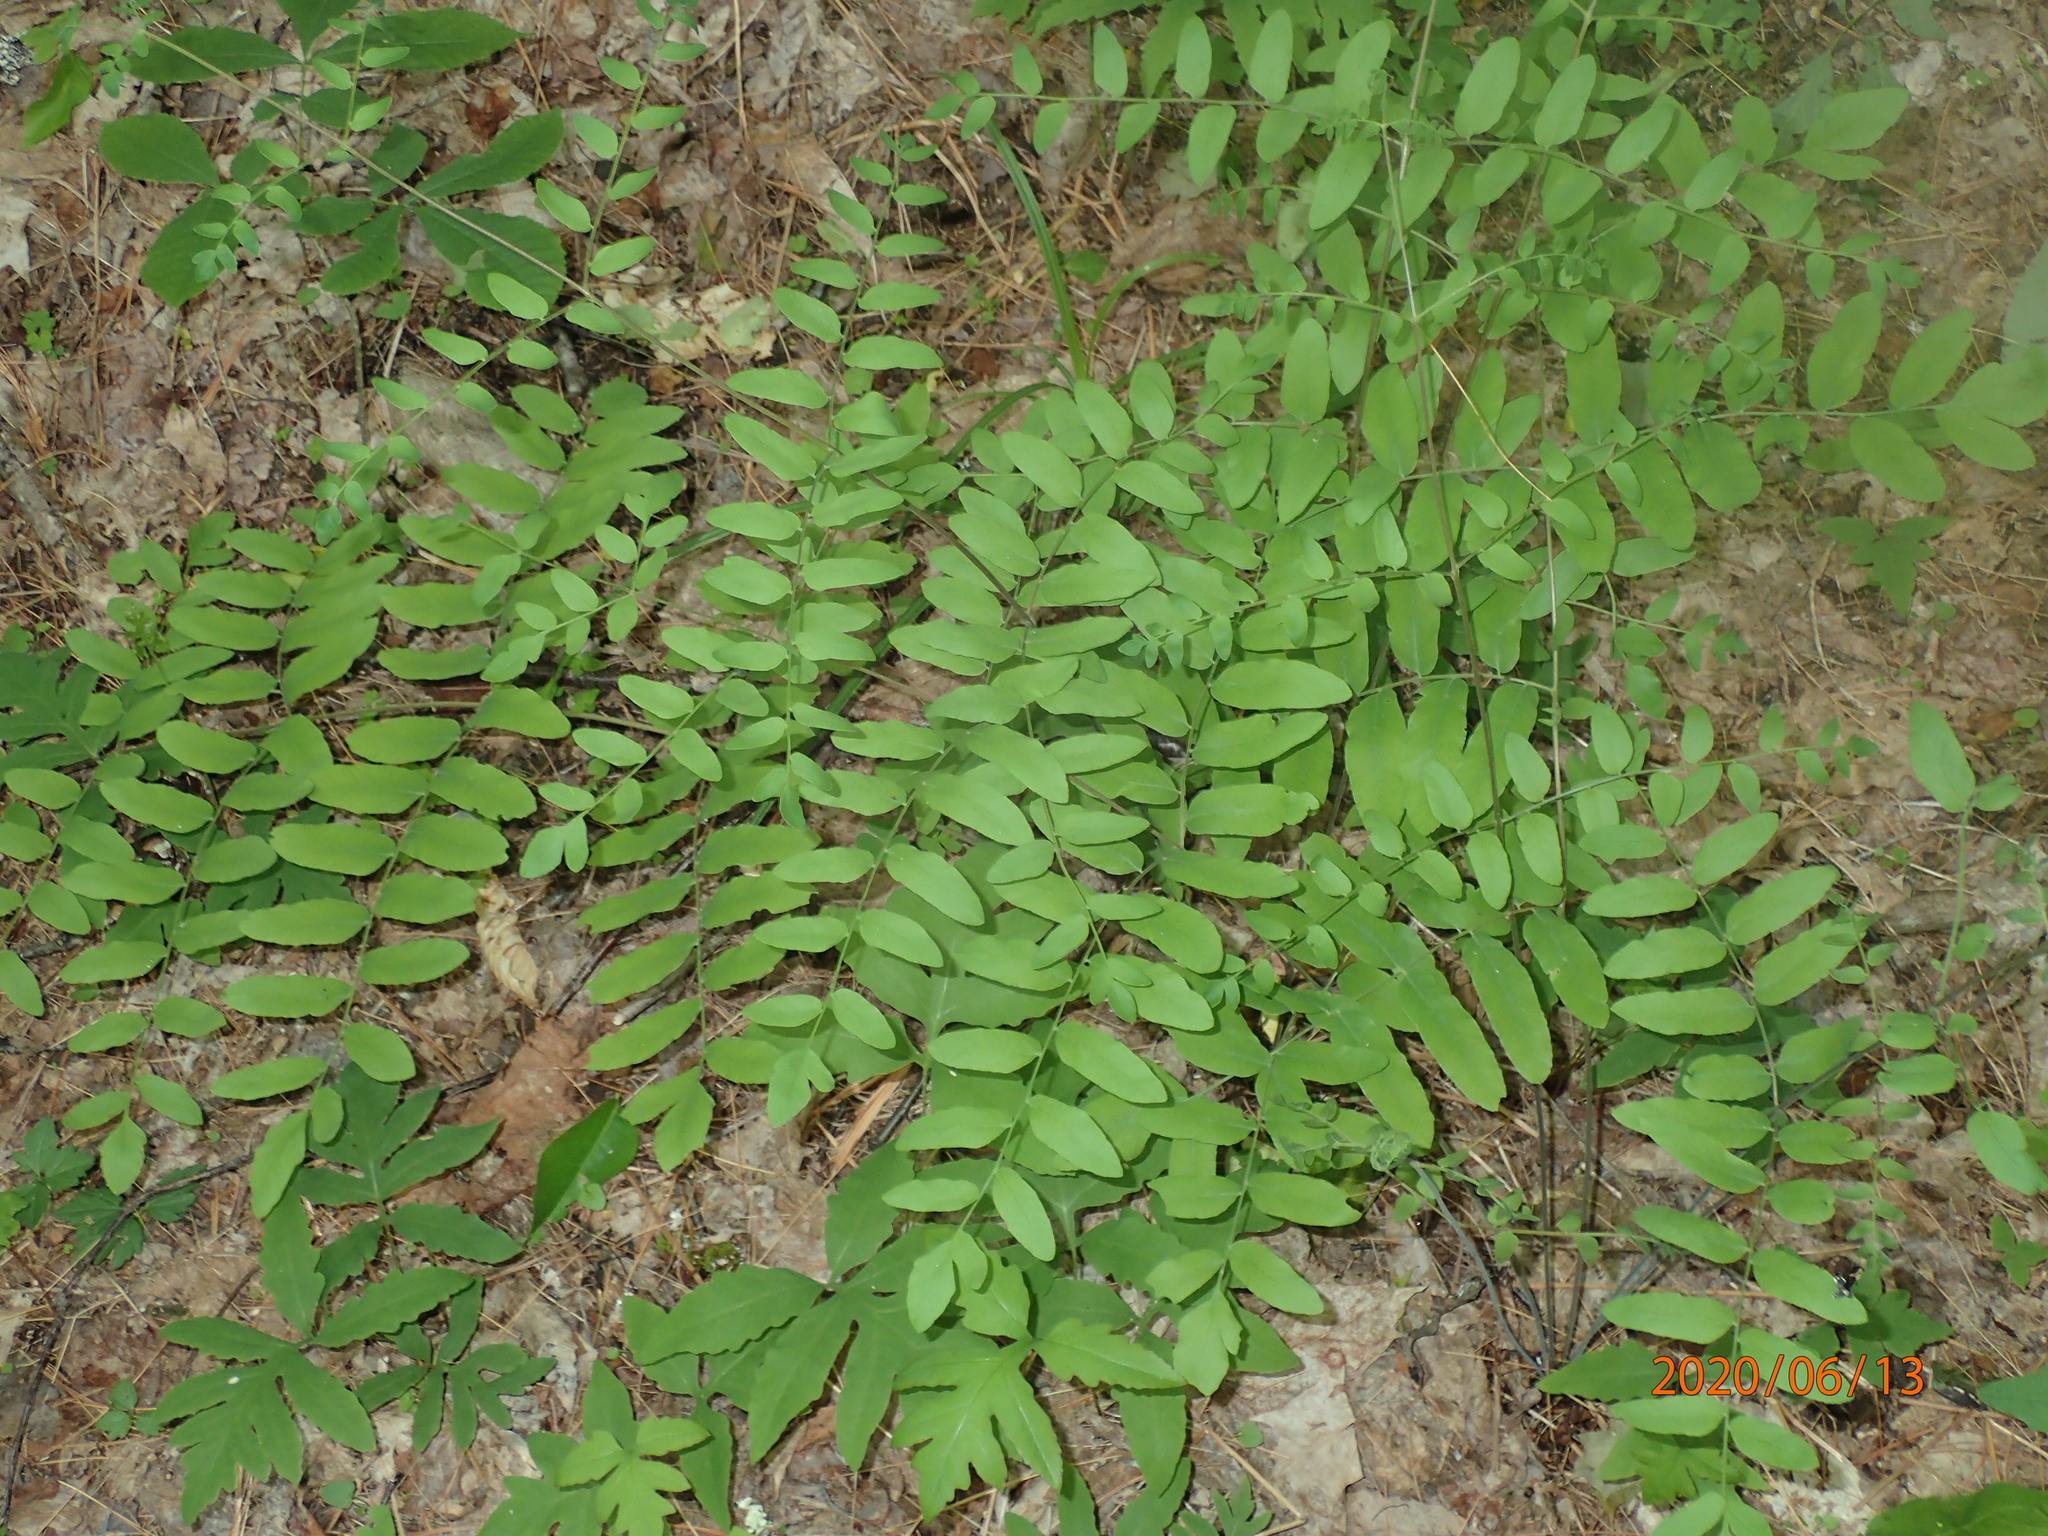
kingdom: Plantae
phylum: Tracheophyta
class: Polypodiopsida
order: Osmundales
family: Osmundaceae
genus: Osmunda
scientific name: Osmunda spectabilis
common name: American royal fern
